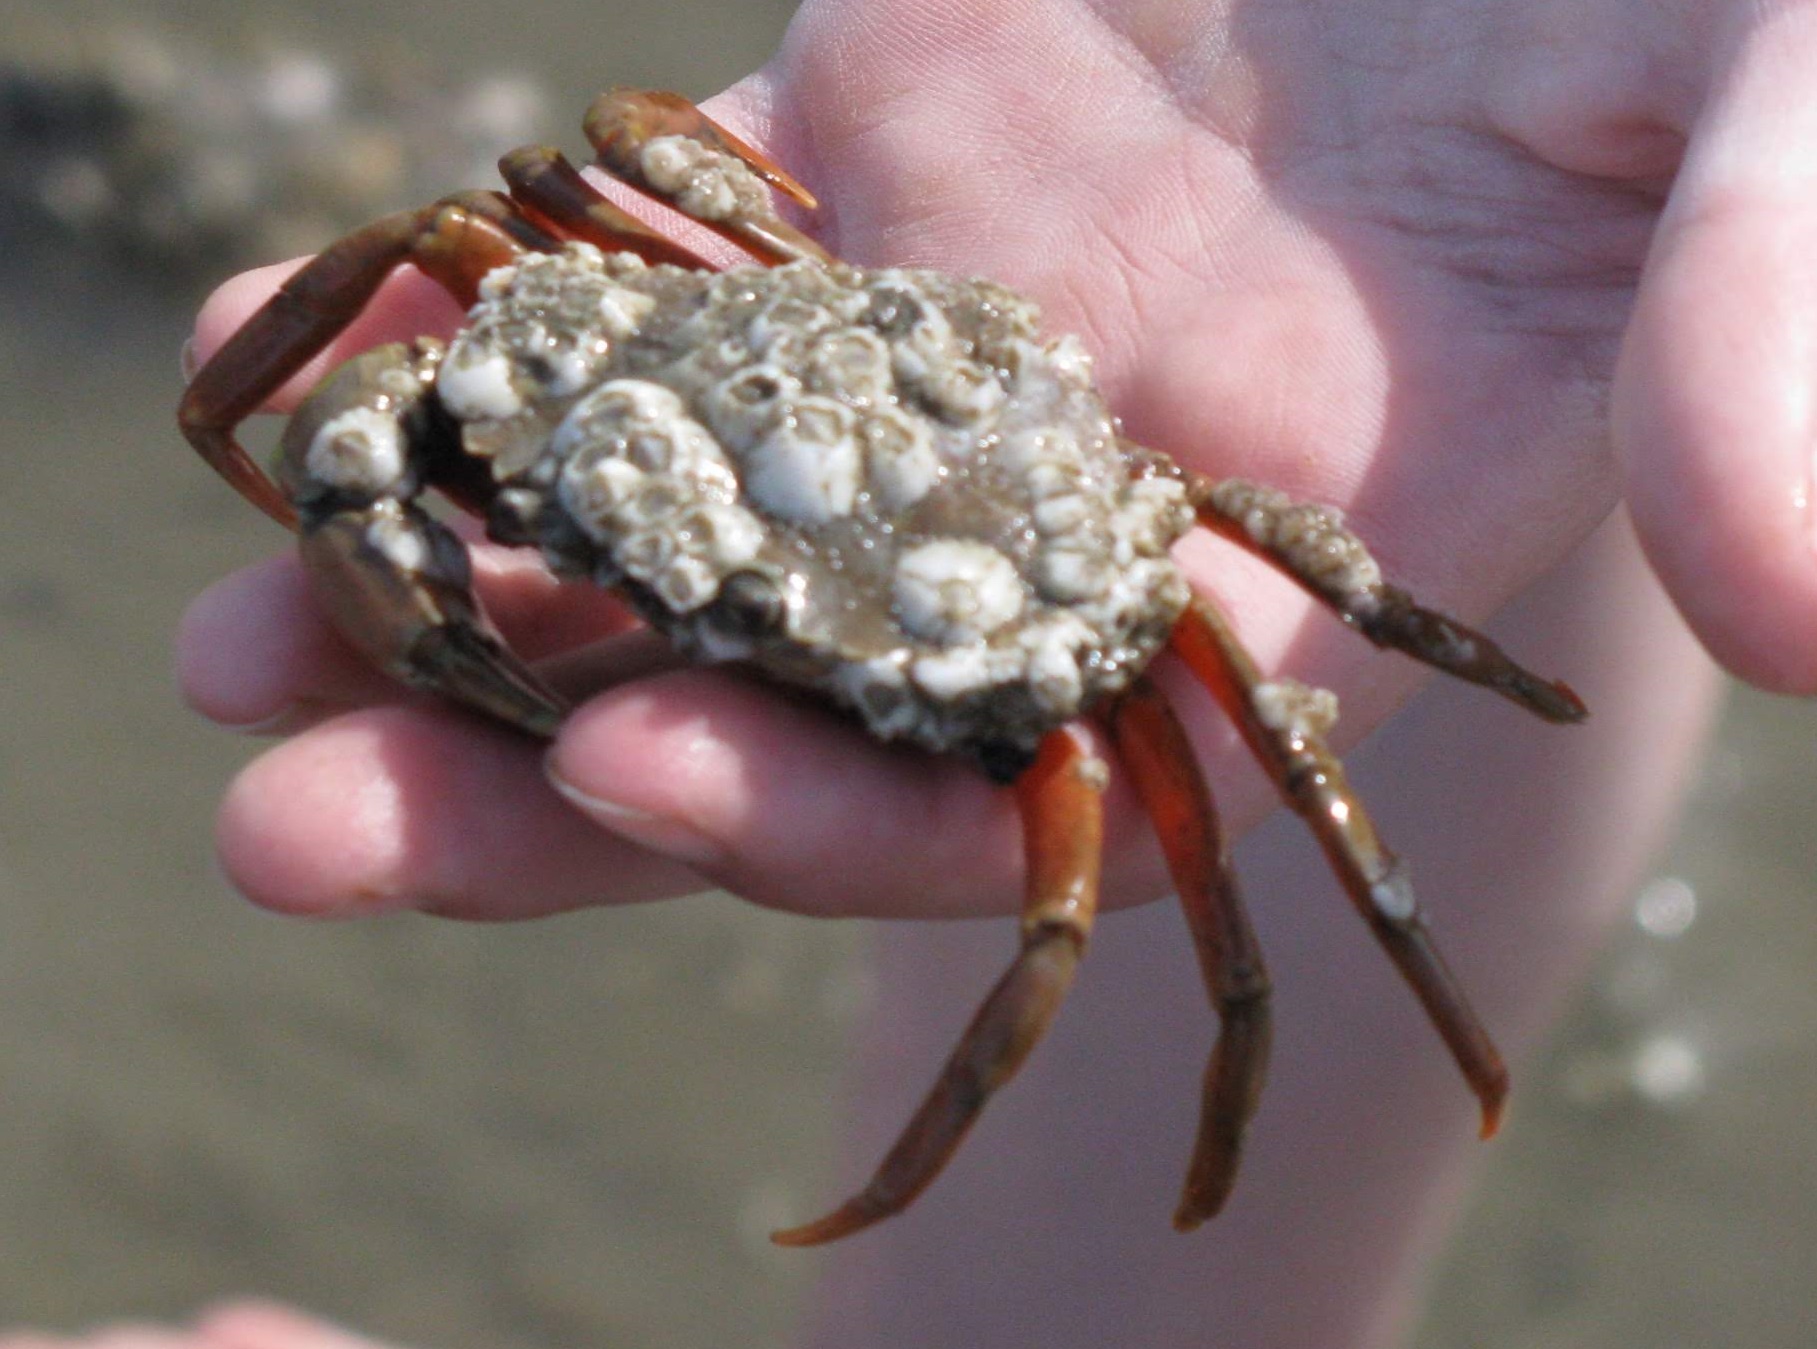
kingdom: Animalia
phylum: Arthropoda
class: Malacostraca
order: Decapoda
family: Carcinidae
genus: Carcinus
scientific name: Carcinus maenas
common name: European green crab
